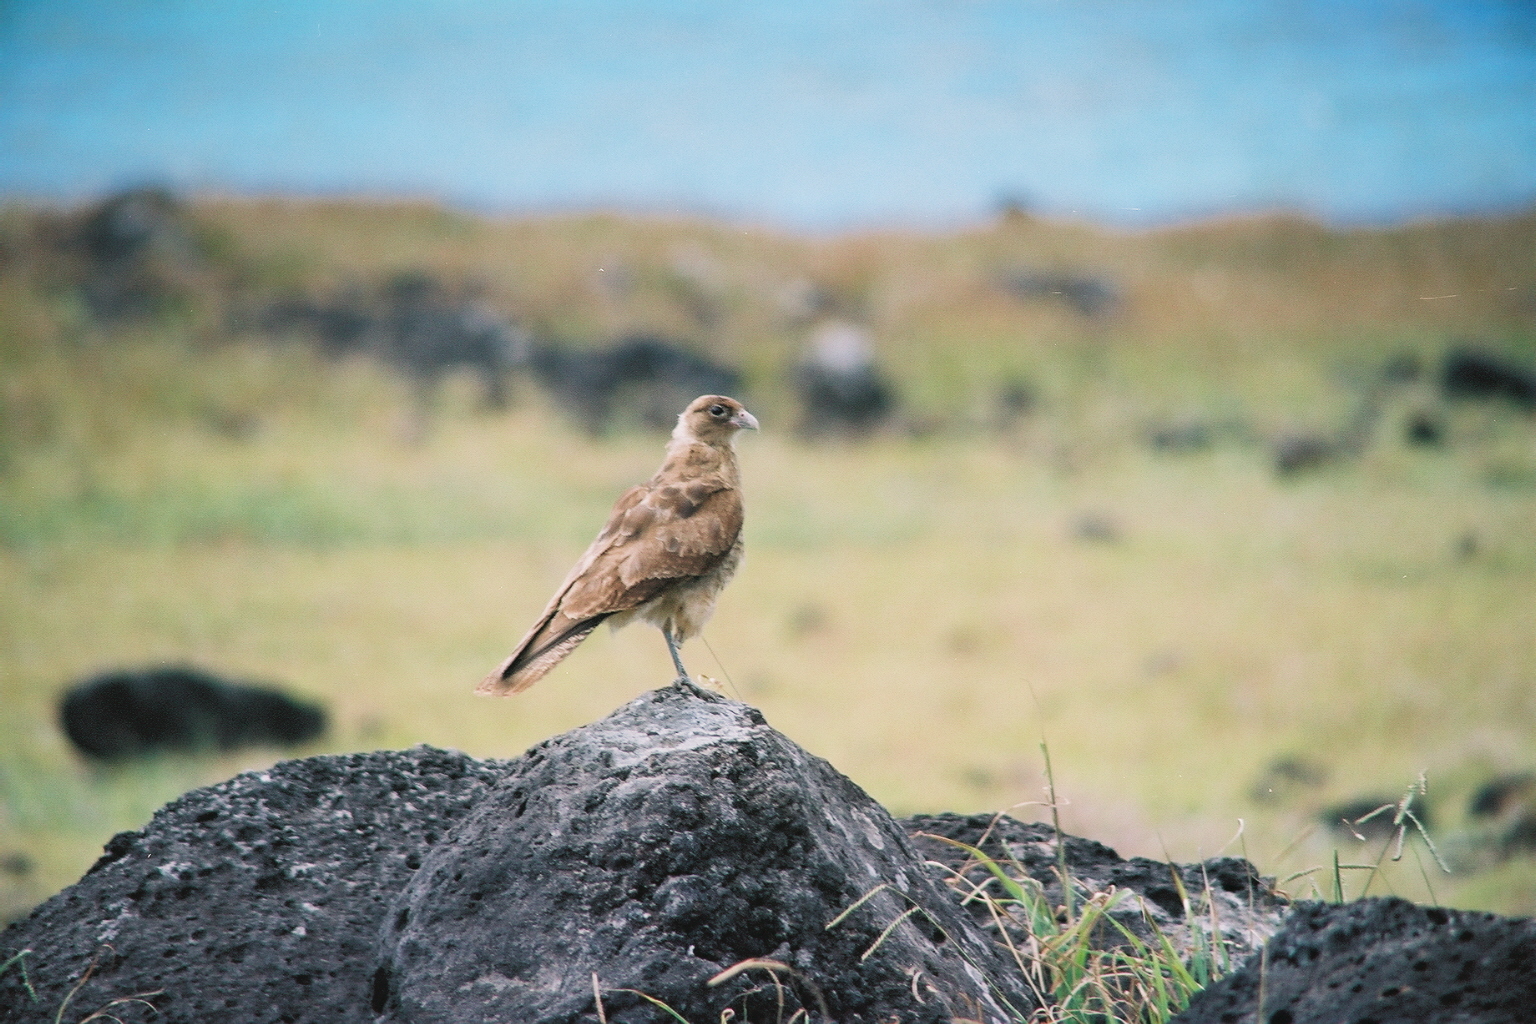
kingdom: Animalia
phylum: Chordata
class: Aves
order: Falconiformes
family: Falconidae
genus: Daptrius
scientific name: Daptrius
